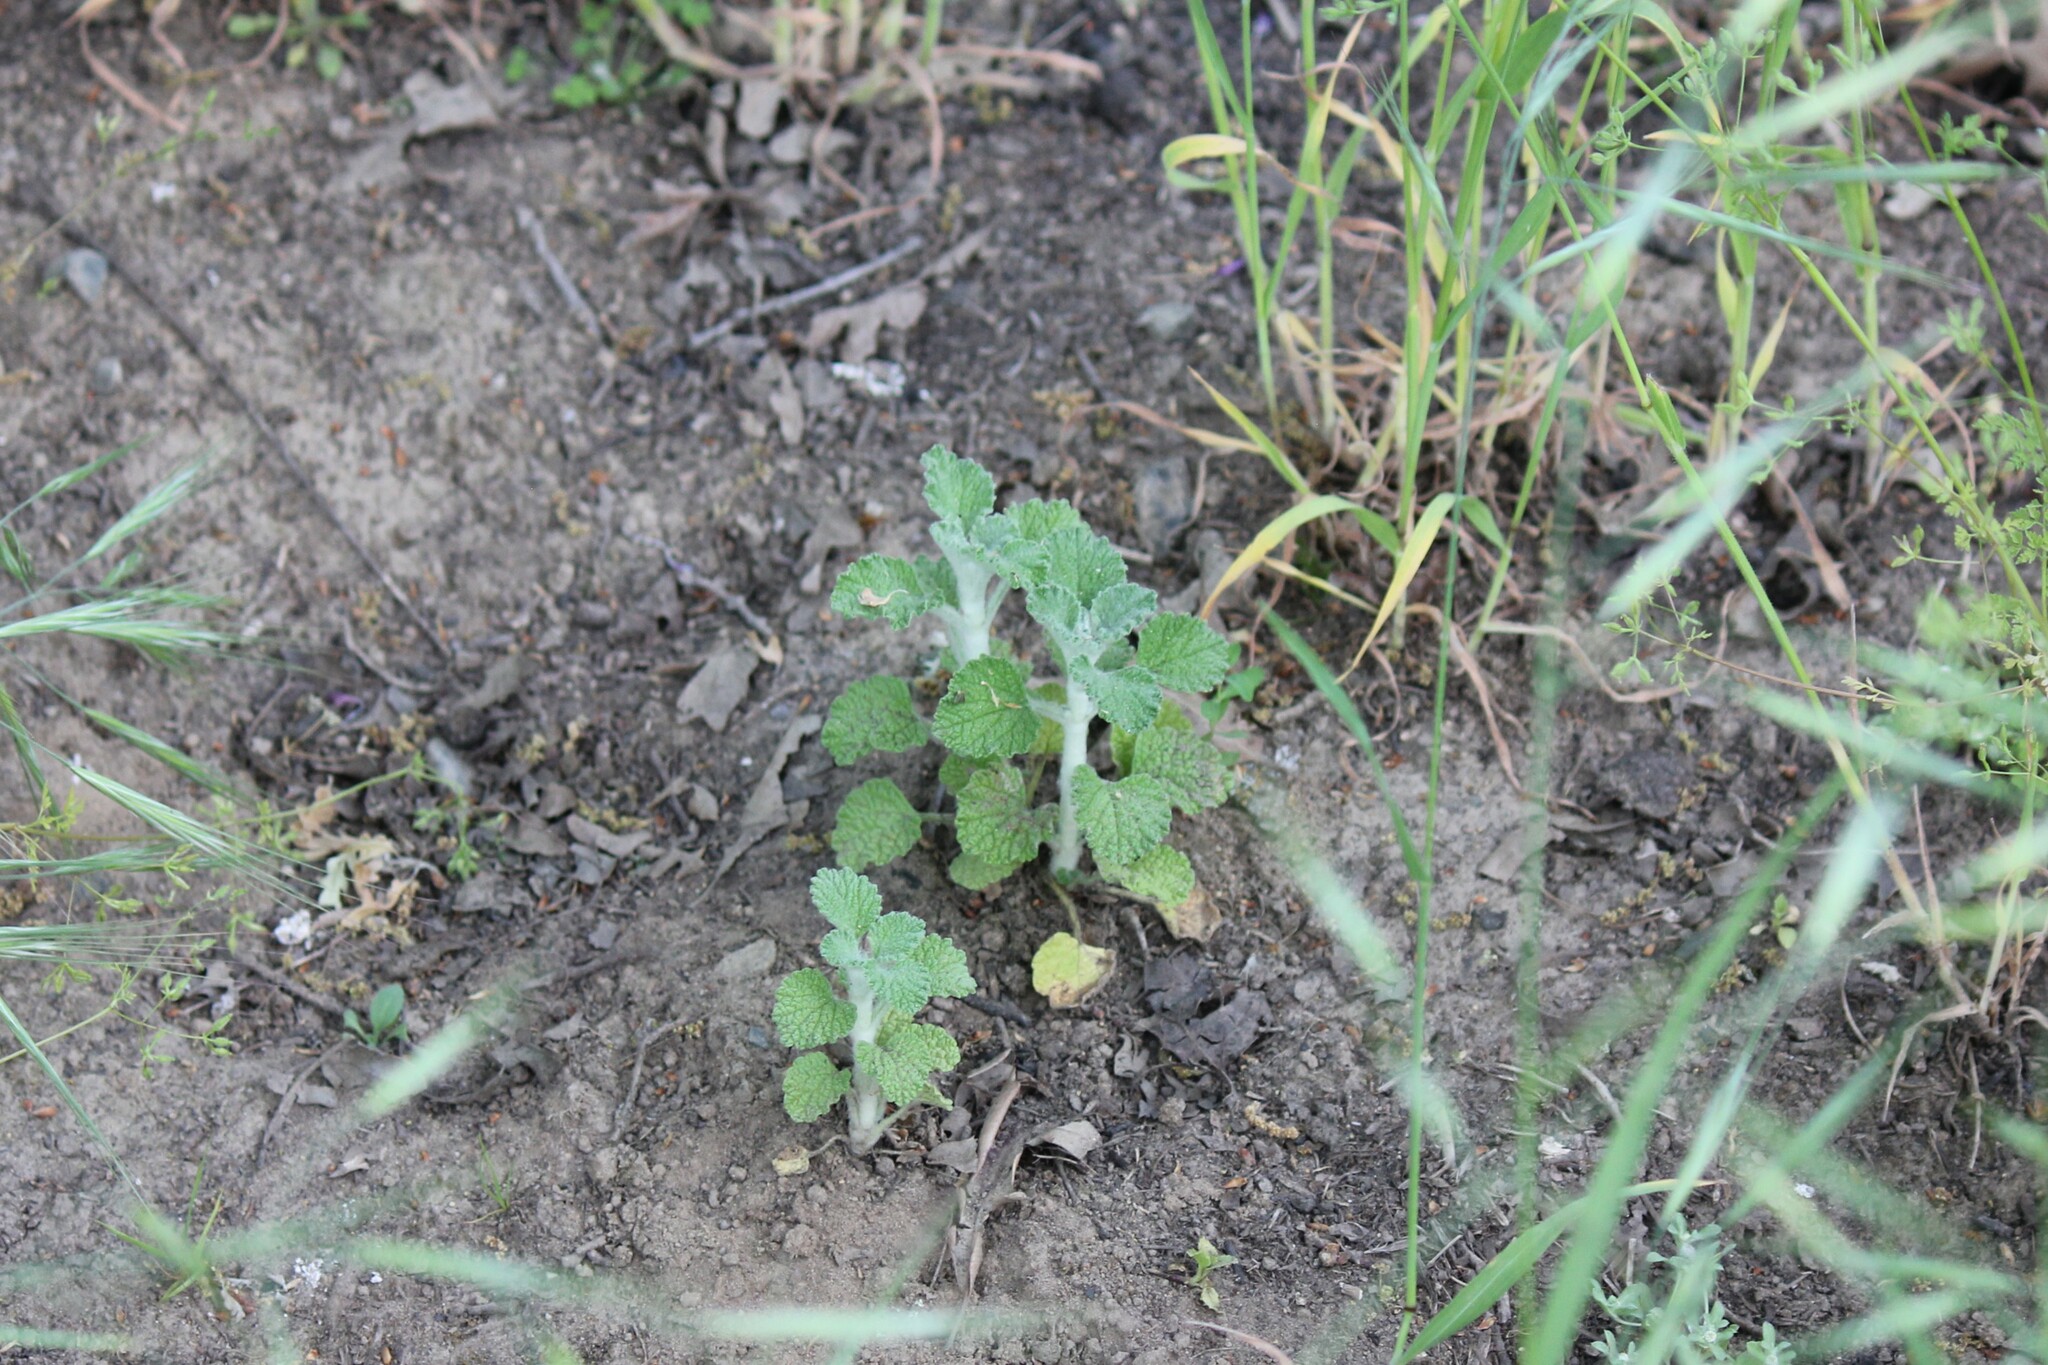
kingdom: Plantae
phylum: Tracheophyta
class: Magnoliopsida
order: Lamiales
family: Lamiaceae
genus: Marrubium
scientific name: Marrubium vulgare
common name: Horehound
